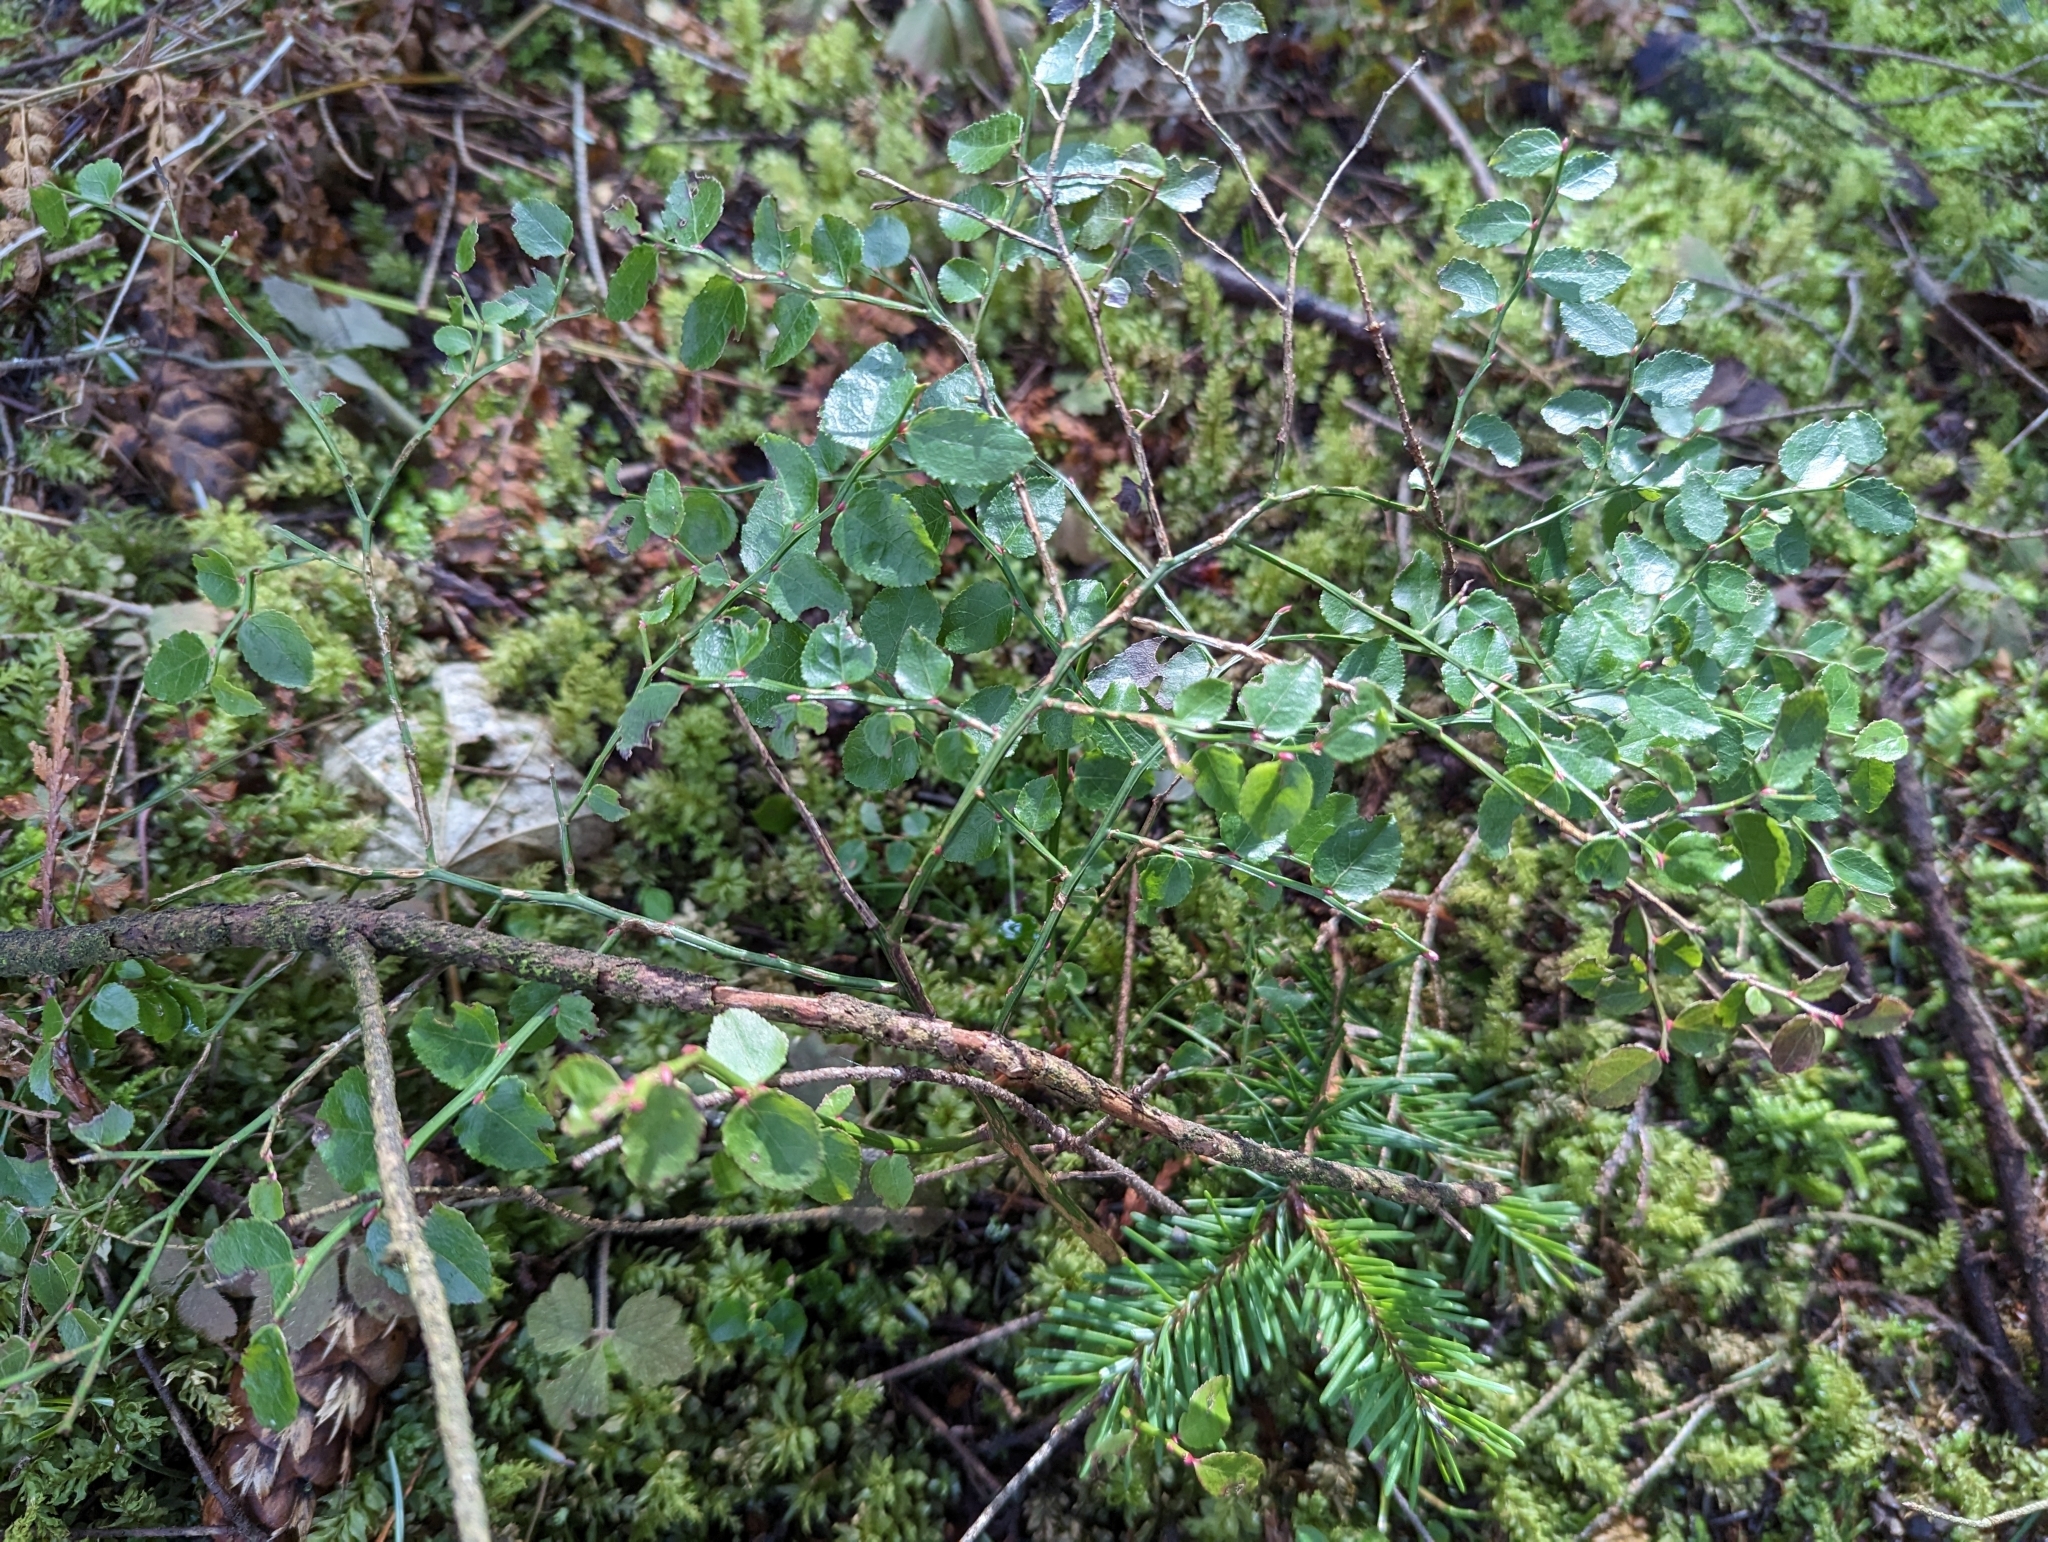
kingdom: Plantae
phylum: Tracheophyta
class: Magnoliopsida
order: Ericales
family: Ericaceae
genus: Vaccinium
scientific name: Vaccinium parvifolium
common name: Red-huckleberry
